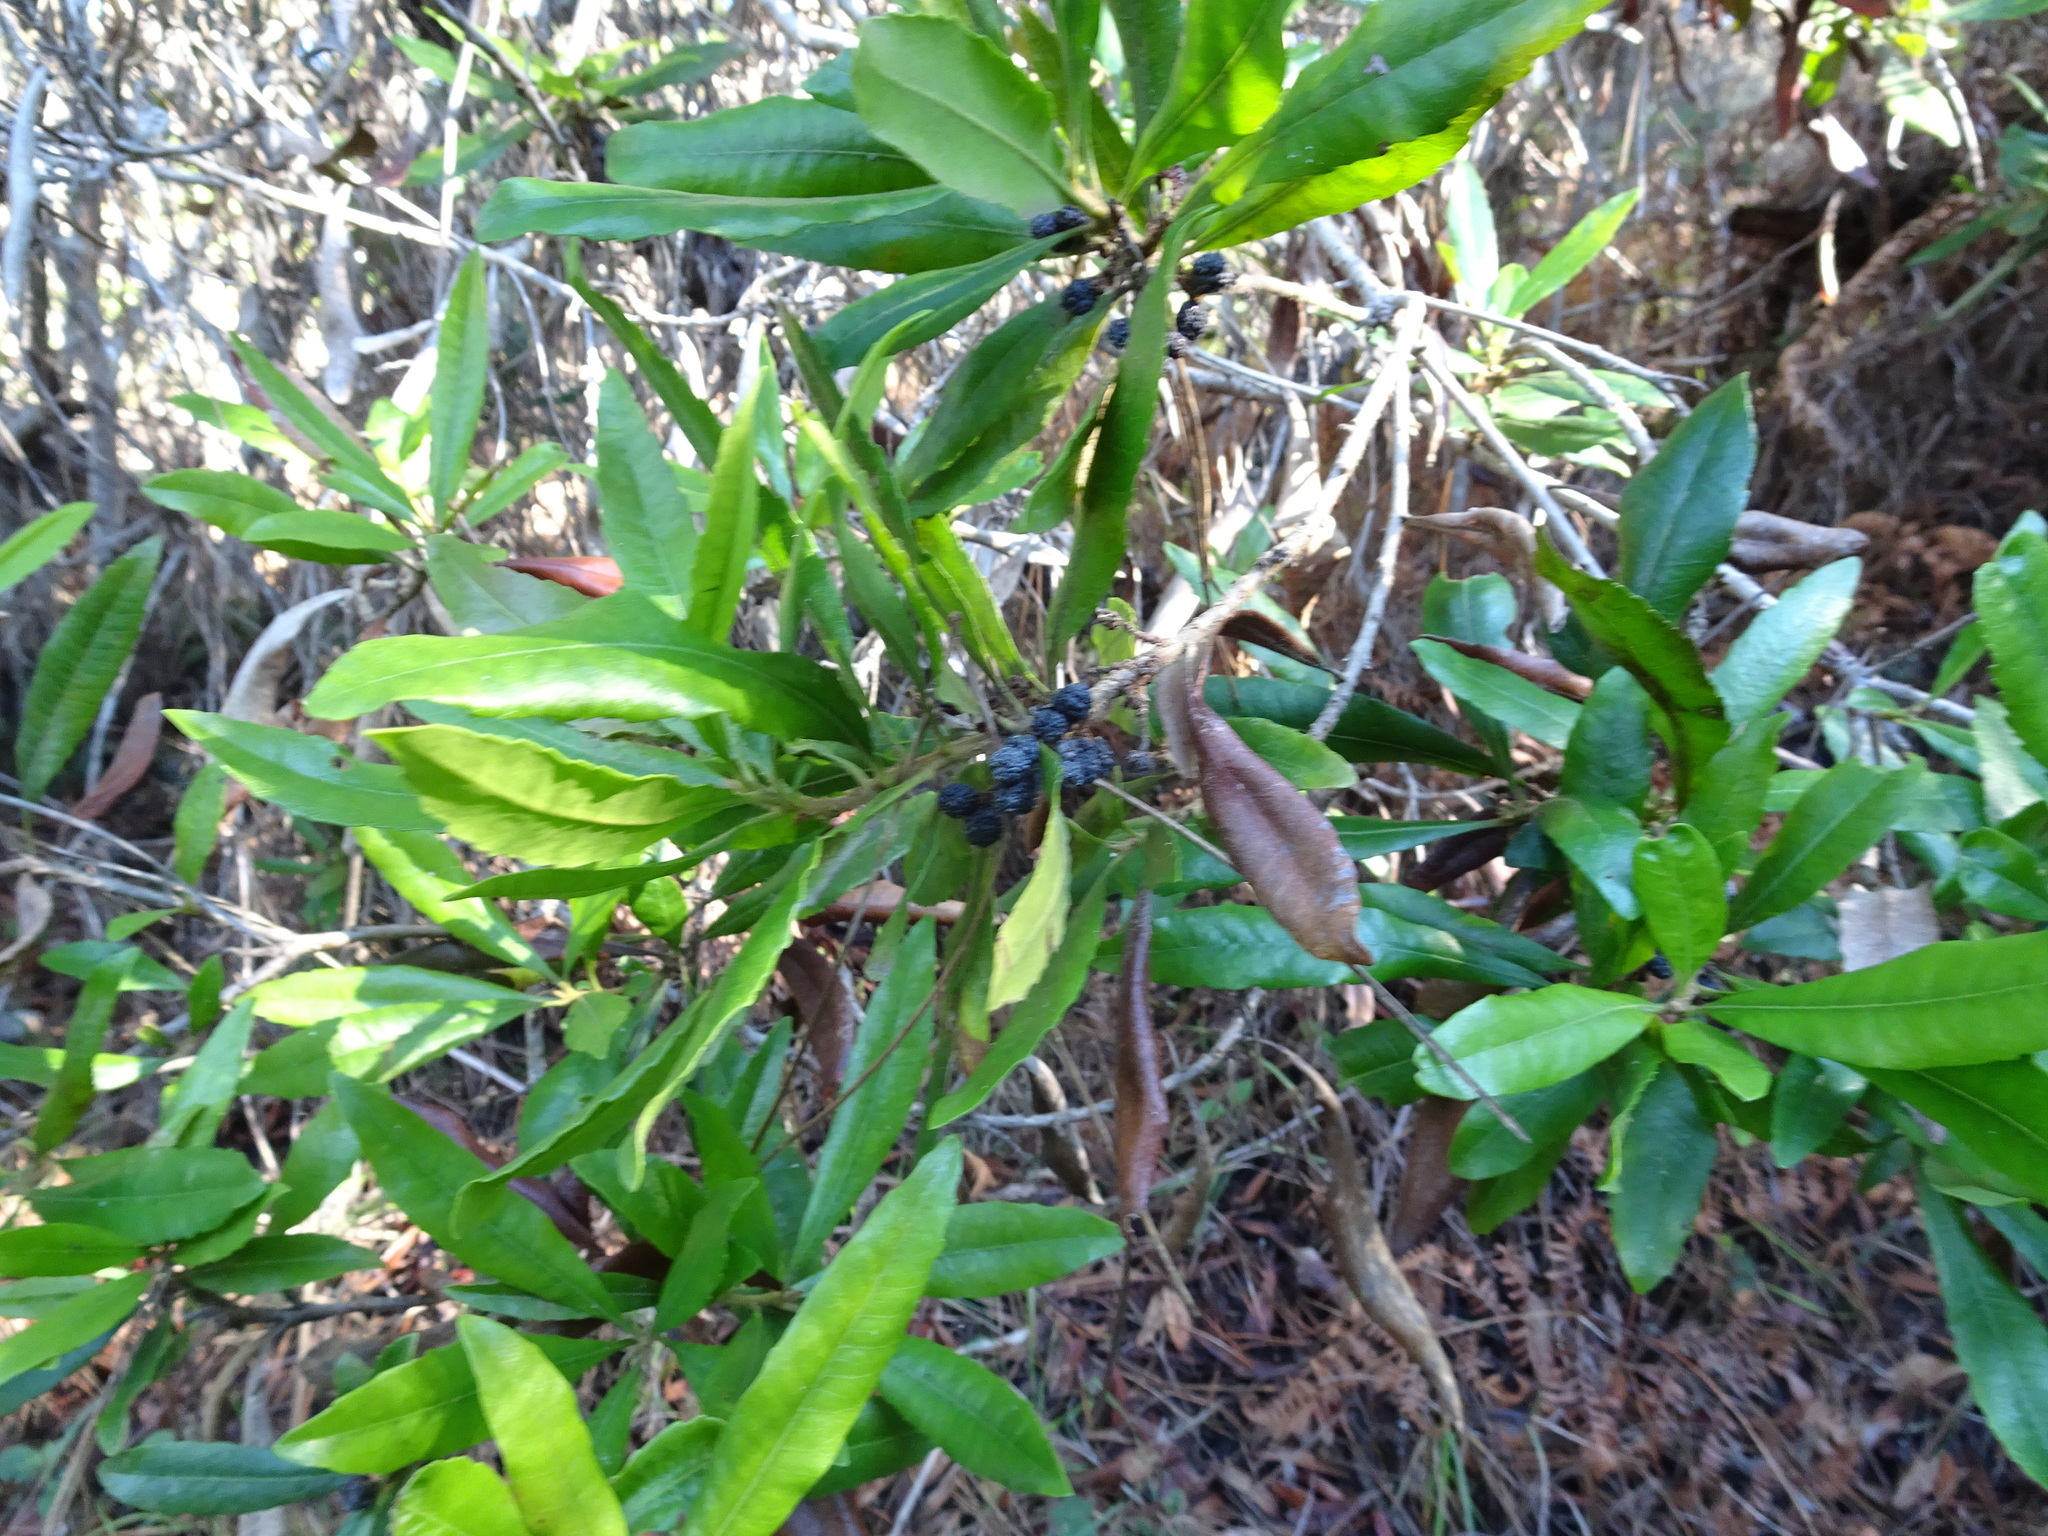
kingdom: Plantae
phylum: Tracheophyta
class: Magnoliopsida
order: Fagales
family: Myricaceae
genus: Morella
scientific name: Morella californica
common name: California wax-myrtle
